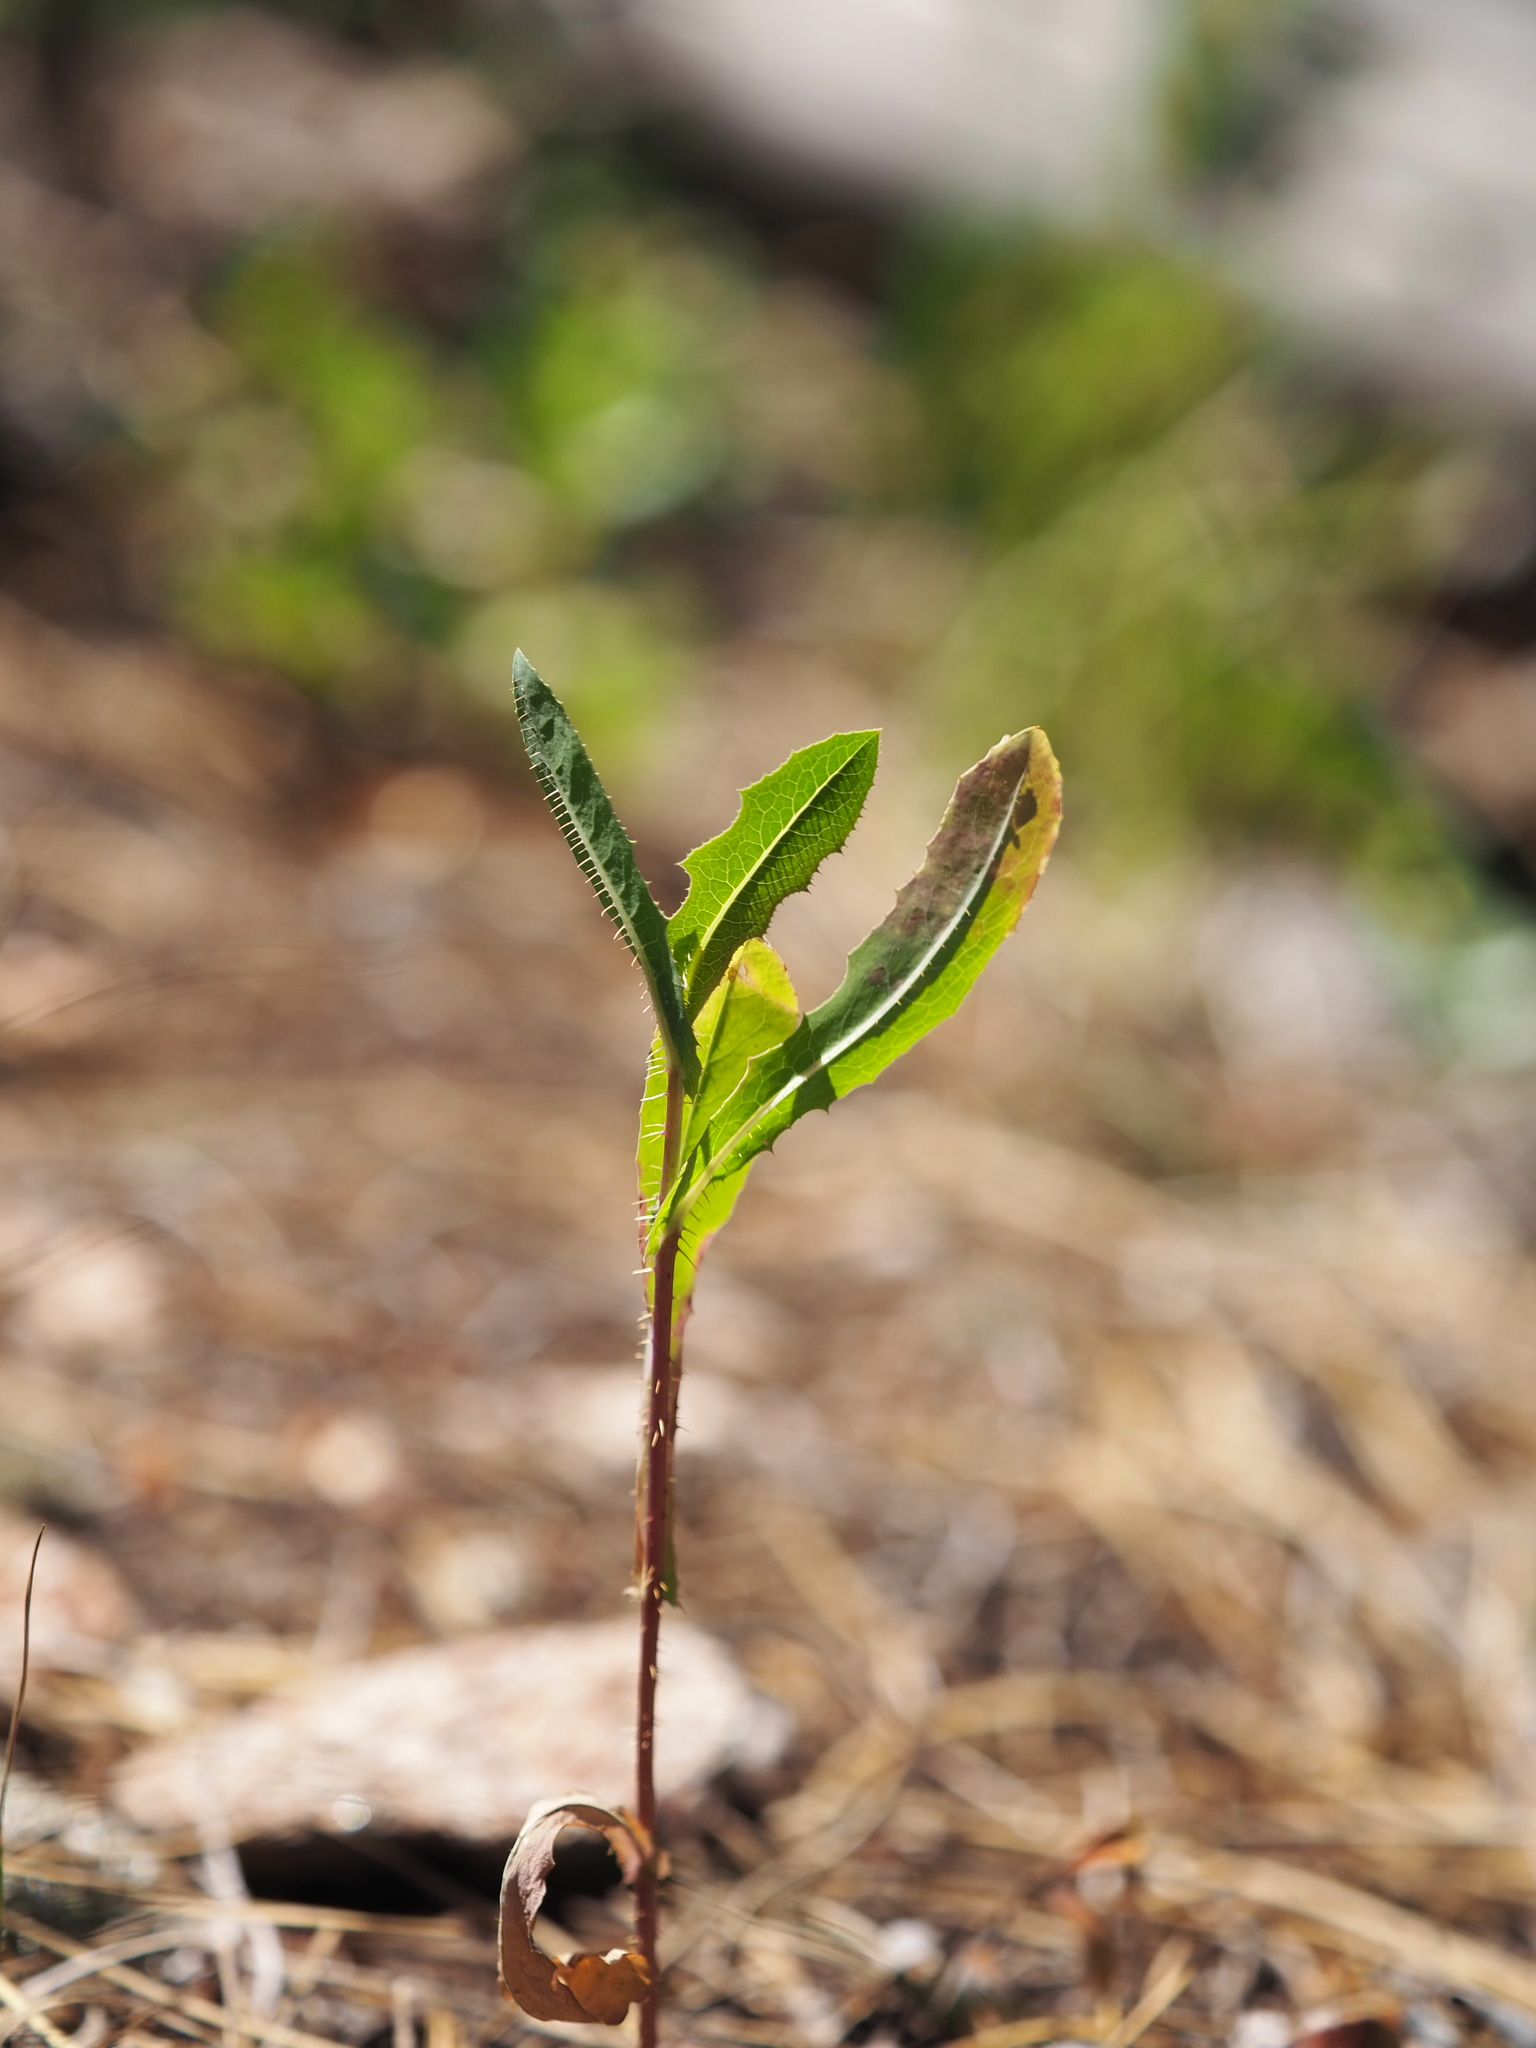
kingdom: Plantae
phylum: Tracheophyta
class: Magnoliopsida
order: Asterales
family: Asteraceae
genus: Lactuca
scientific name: Lactuca serriola
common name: Prickly lettuce
